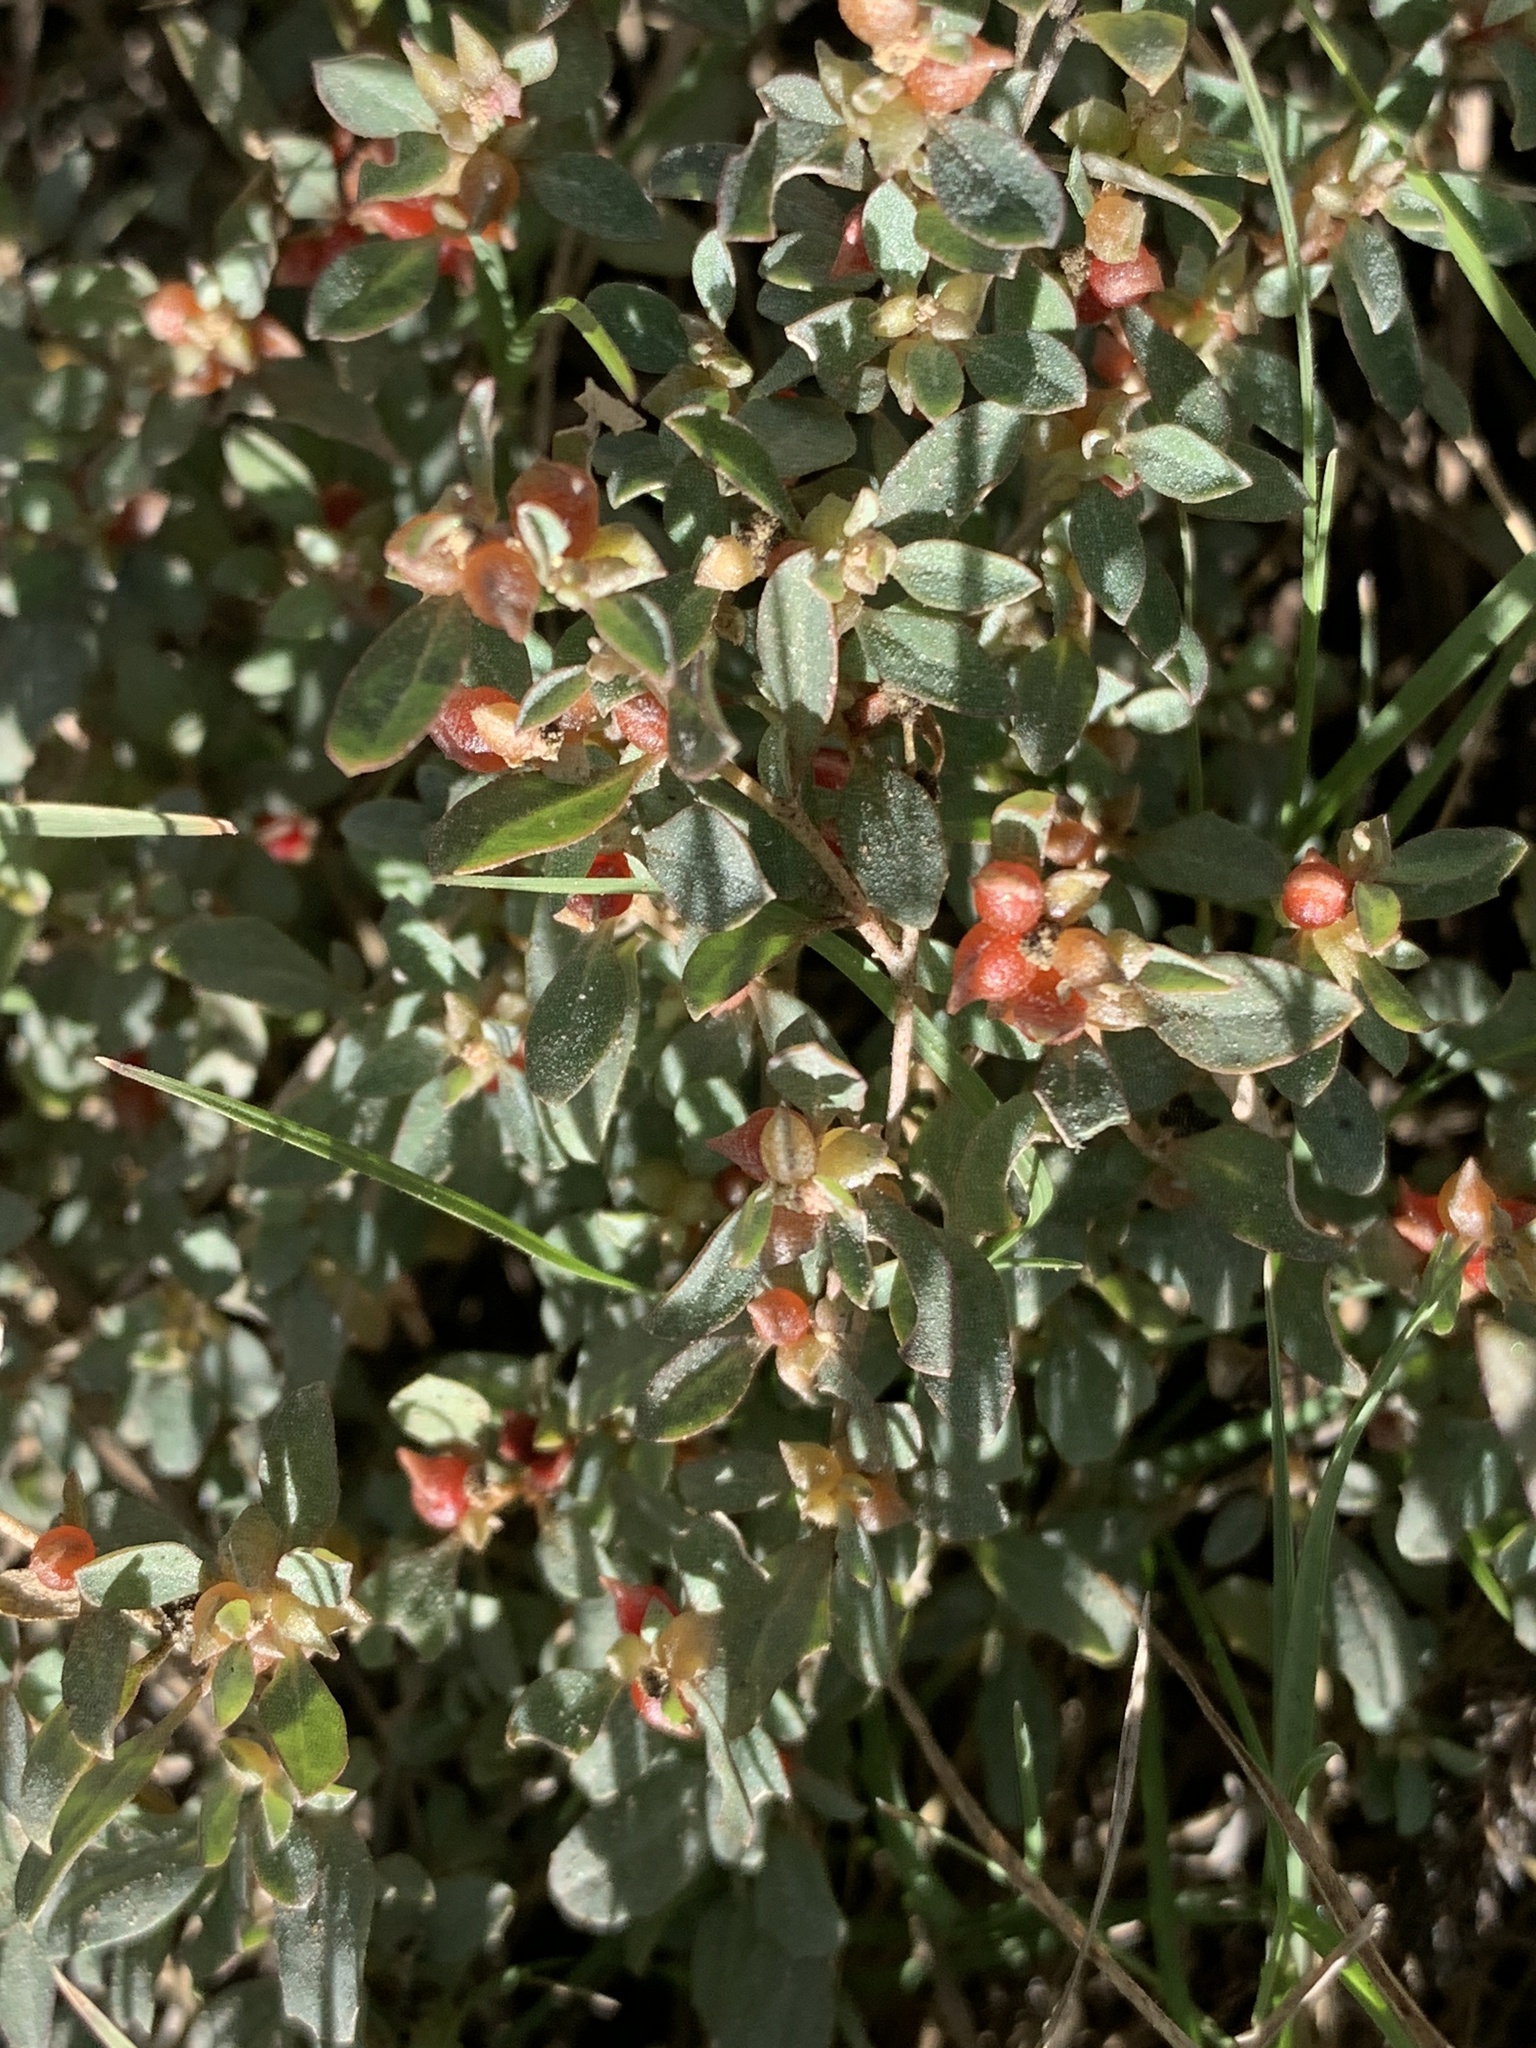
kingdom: Plantae
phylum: Tracheophyta
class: Magnoliopsida
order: Caryophyllales
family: Amaranthaceae
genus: Atriplex
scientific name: Atriplex semibaccata
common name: Australian saltbush
